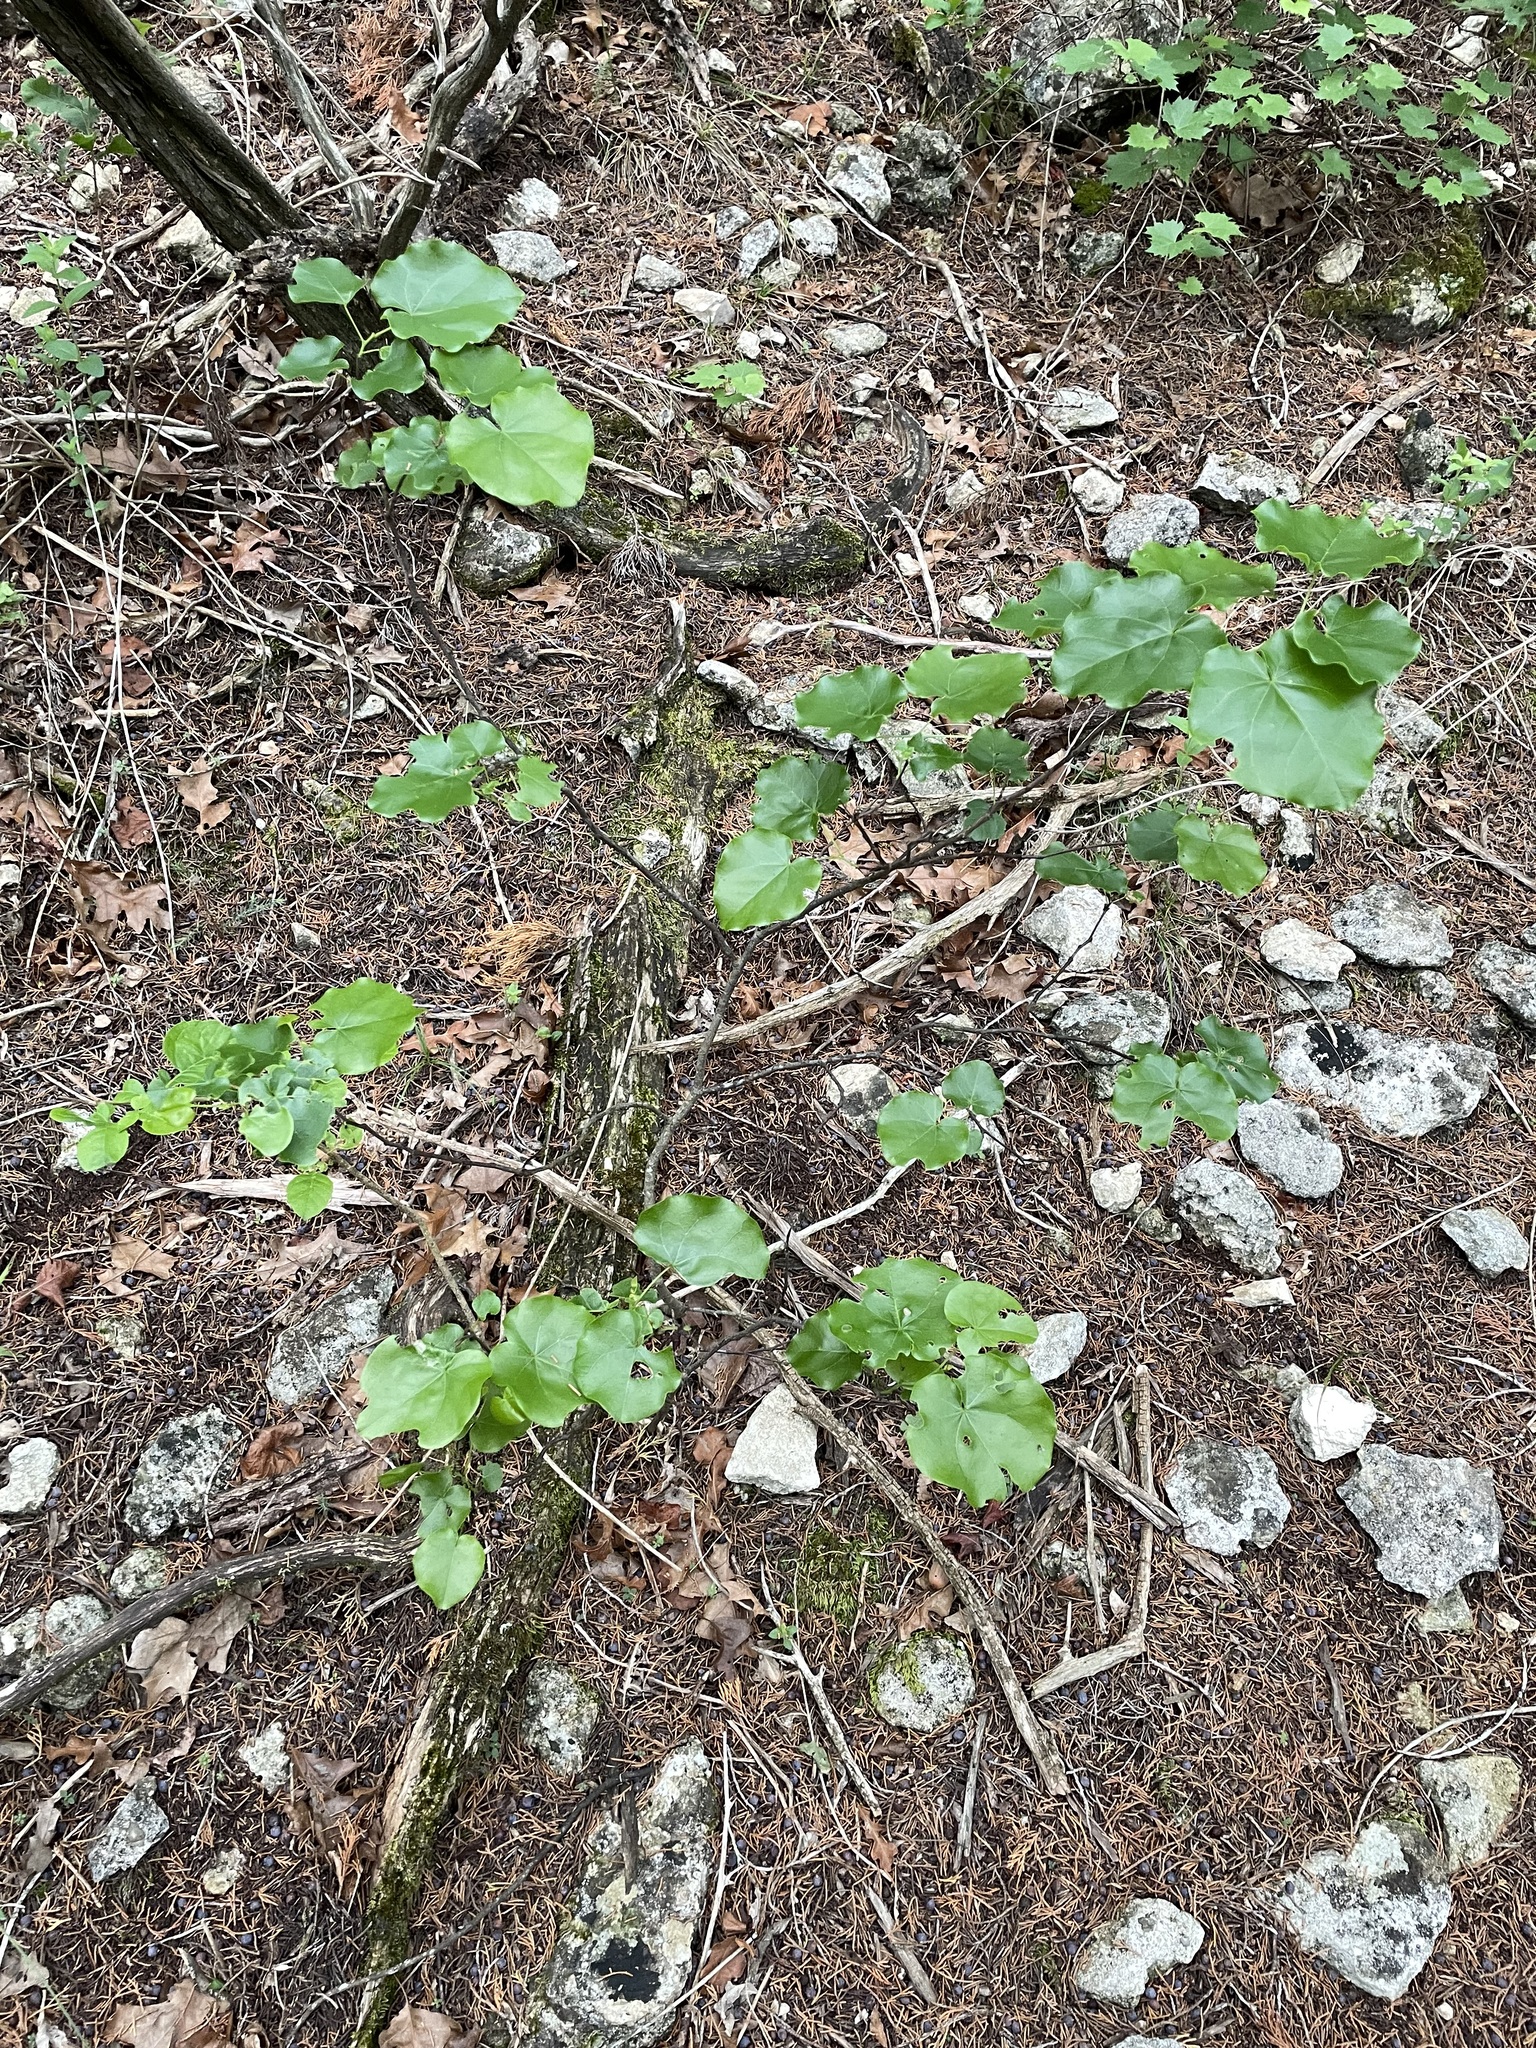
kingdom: Plantae
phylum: Tracheophyta
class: Magnoliopsida
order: Fabales
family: Fabaceae
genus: Cercis
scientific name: Cercis canadensis
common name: Eastern redbud
